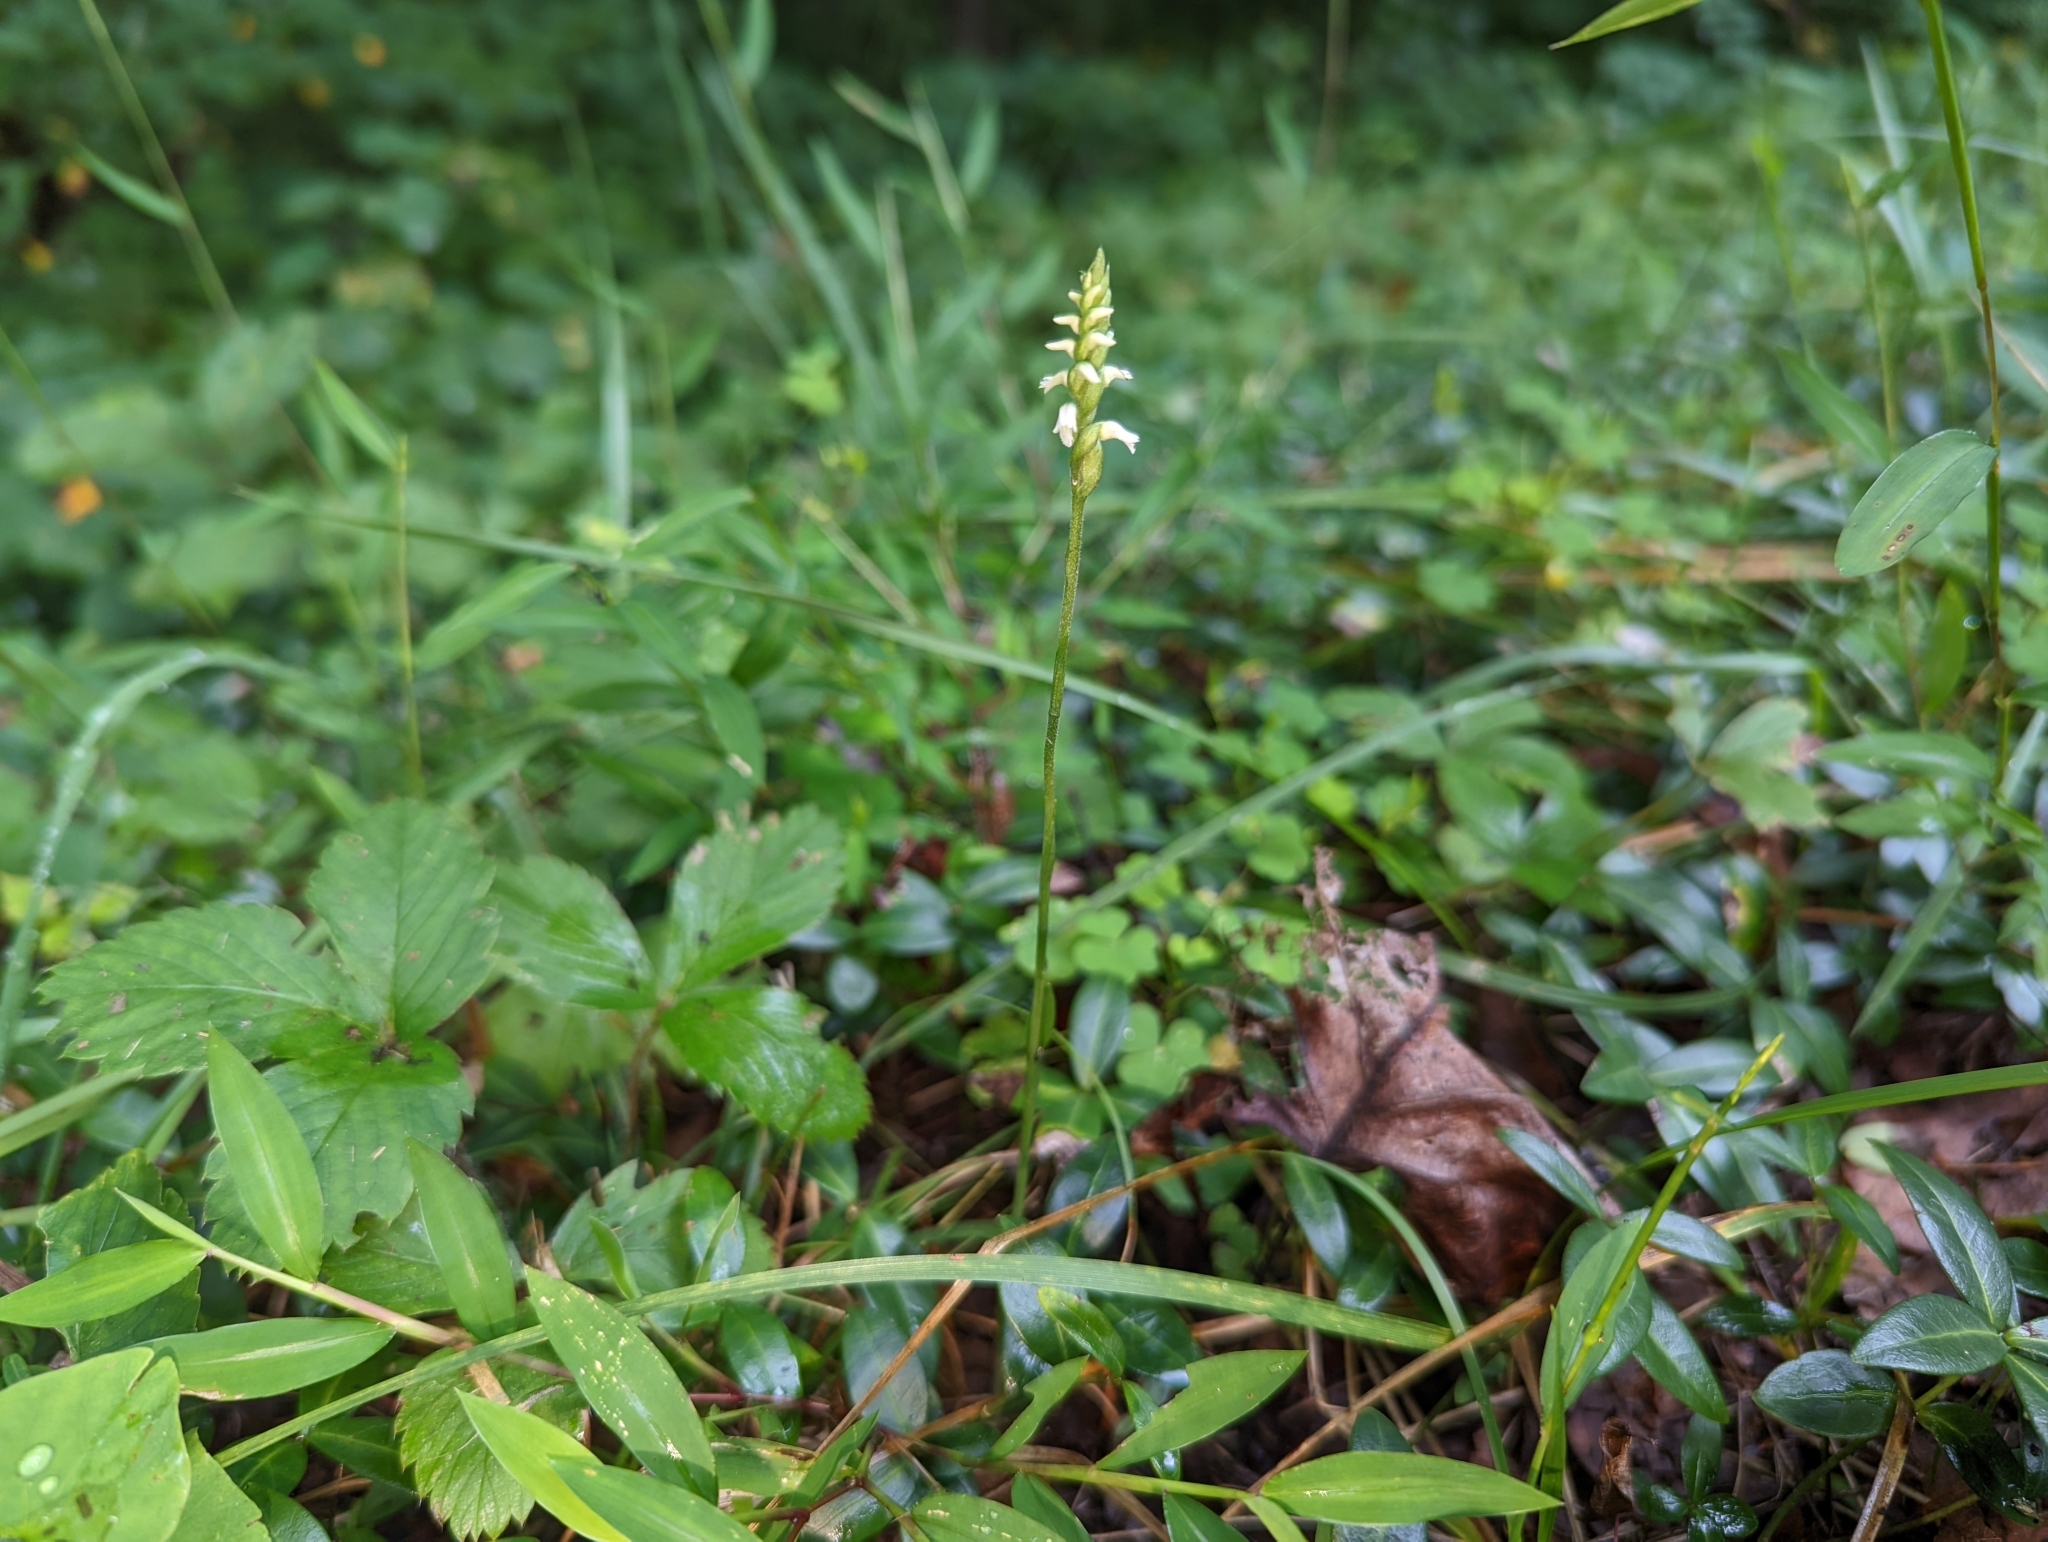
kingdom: Plantae
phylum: Tracheophyta
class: Liliopsida
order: Asparagales
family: Orchidaceae
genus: Spiranthes
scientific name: Spiranthes ovalis
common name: October ladies'-tresses
